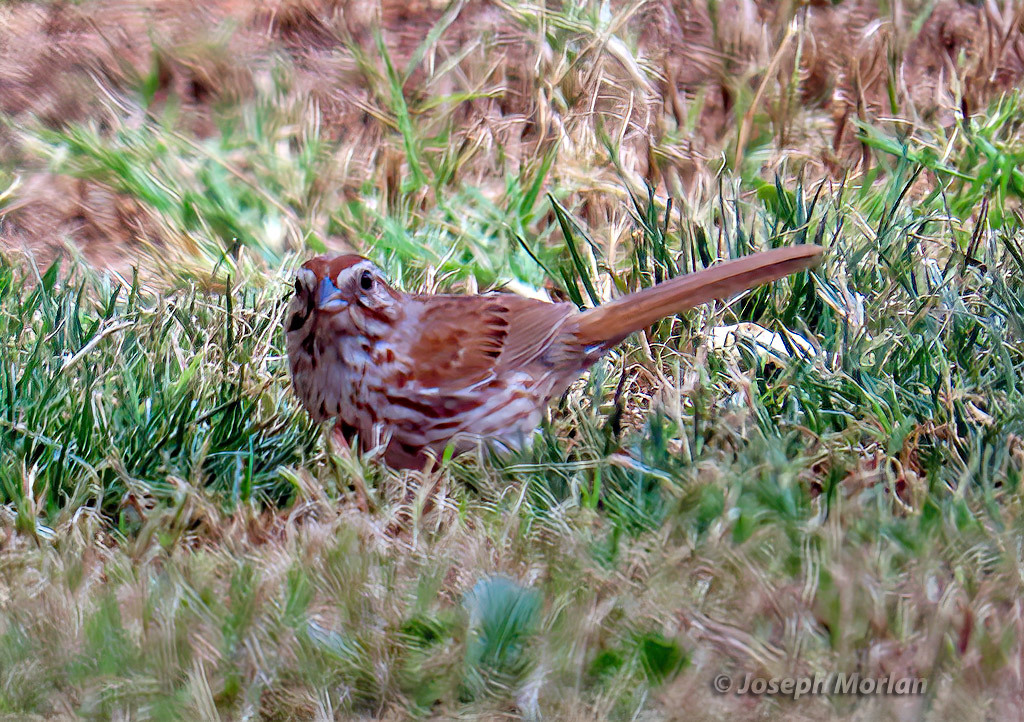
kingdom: Animalia
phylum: Chordata
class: Aves
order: Passeriformes
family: Passerellidae
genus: Melospiza
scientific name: Melospiza melodia
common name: Song sparrow
